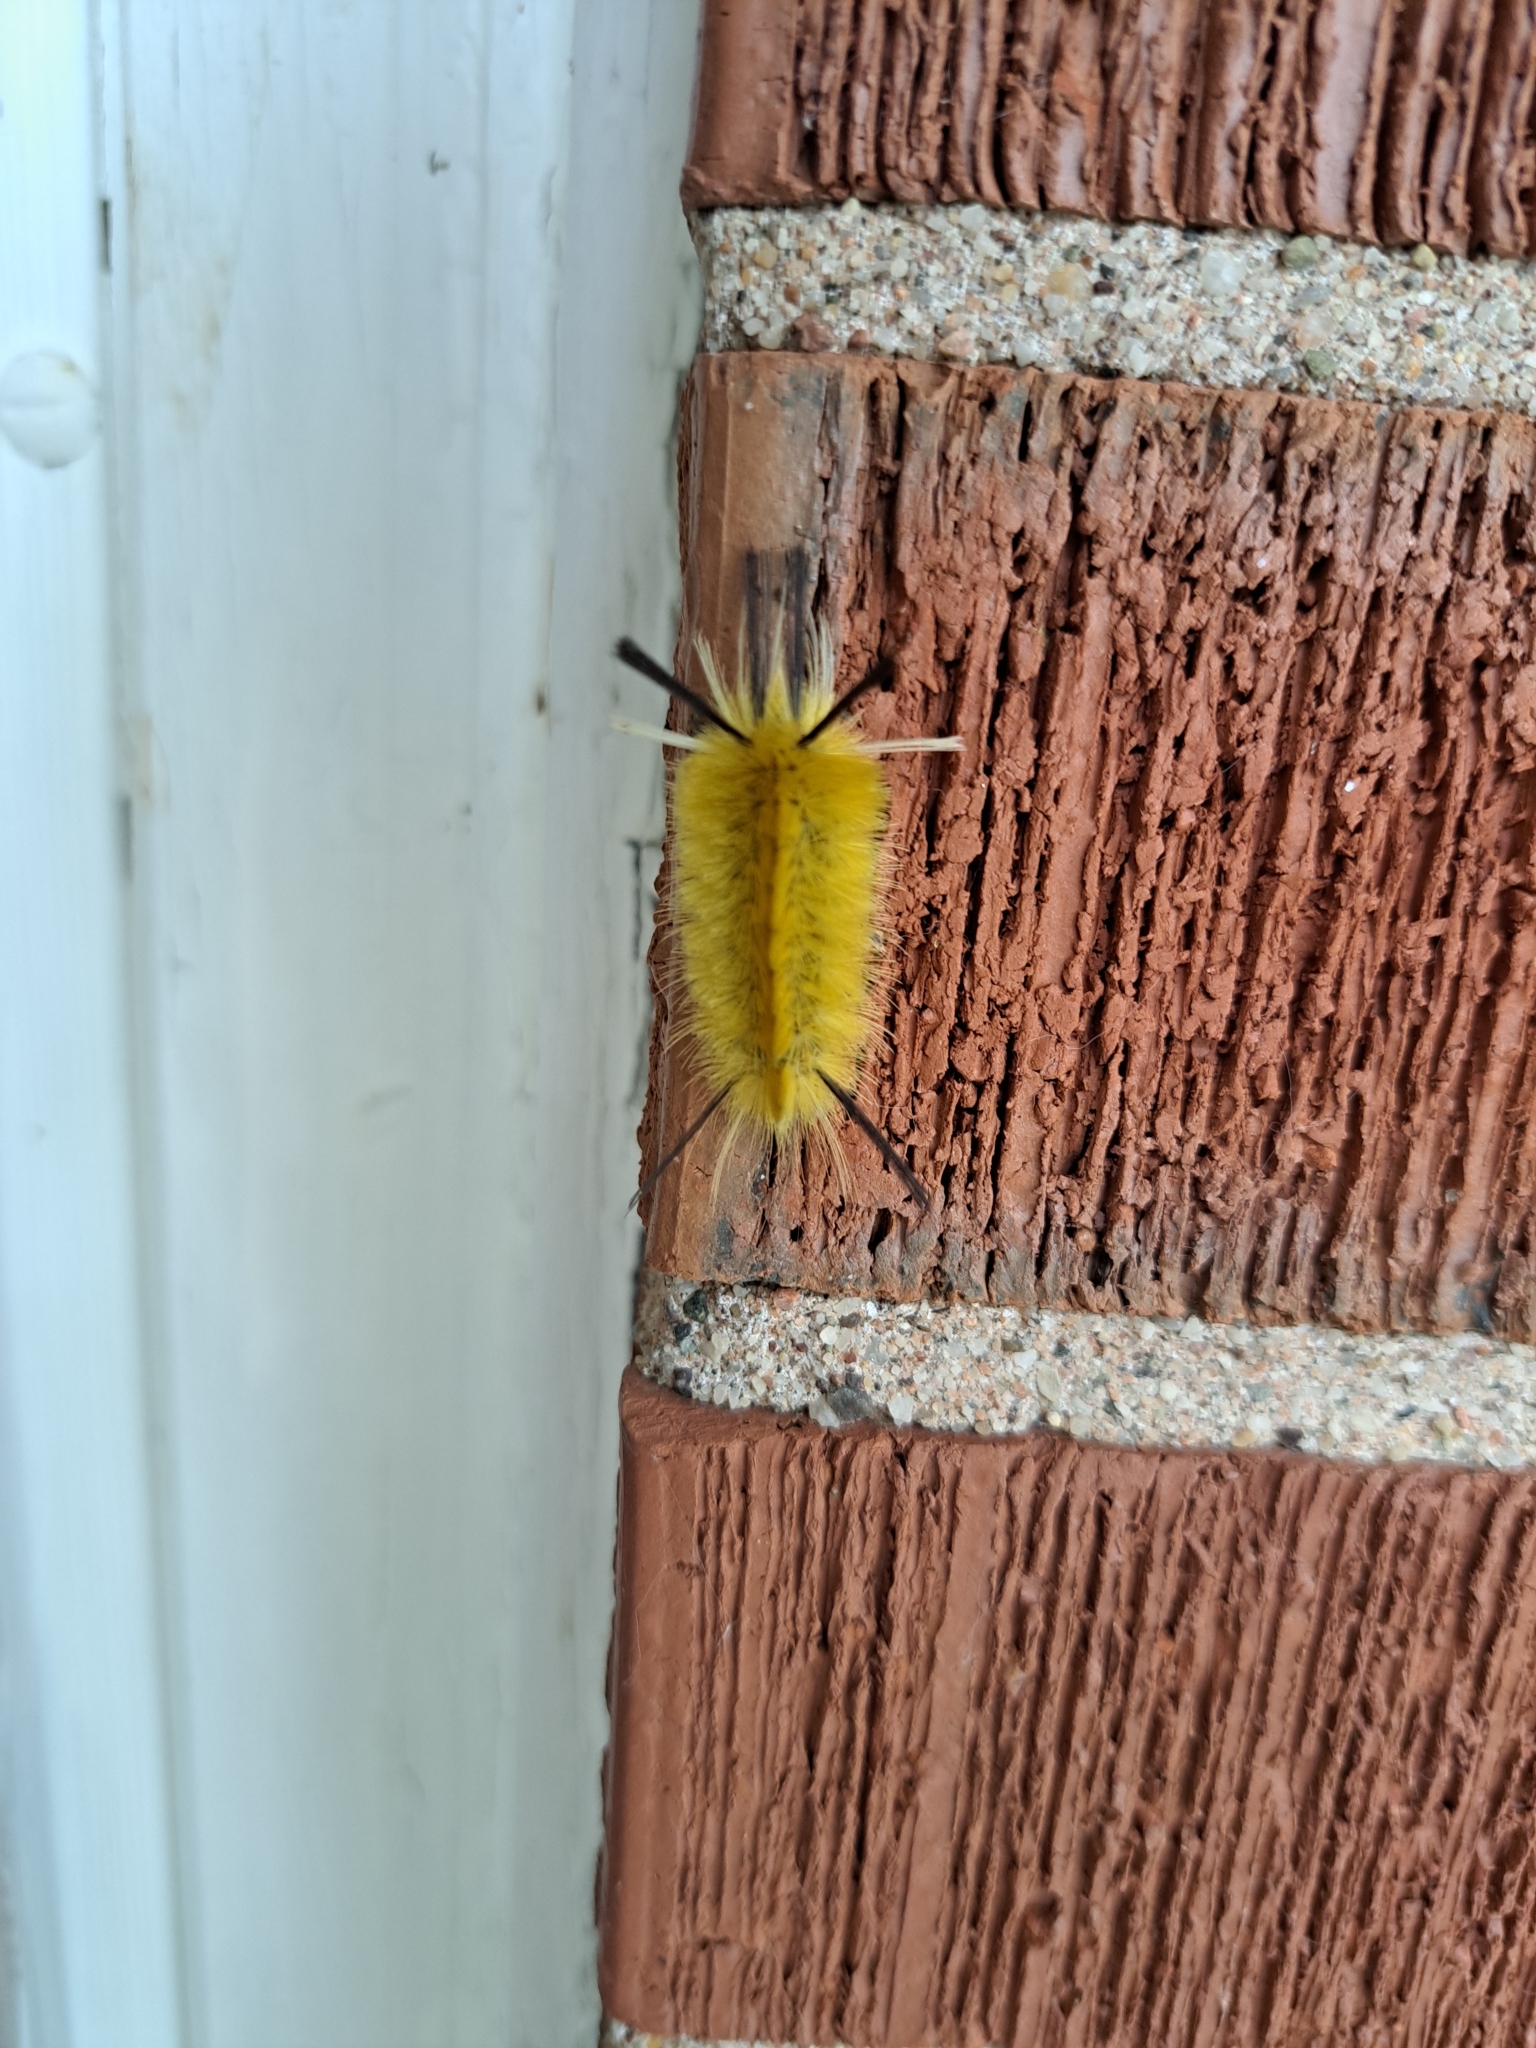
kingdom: Animalia
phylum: Arthropoda
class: Insecta
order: Lepidoptera
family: Erebidae
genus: Halysidota
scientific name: Halysidota tessellaris
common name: Banded tussock moth
